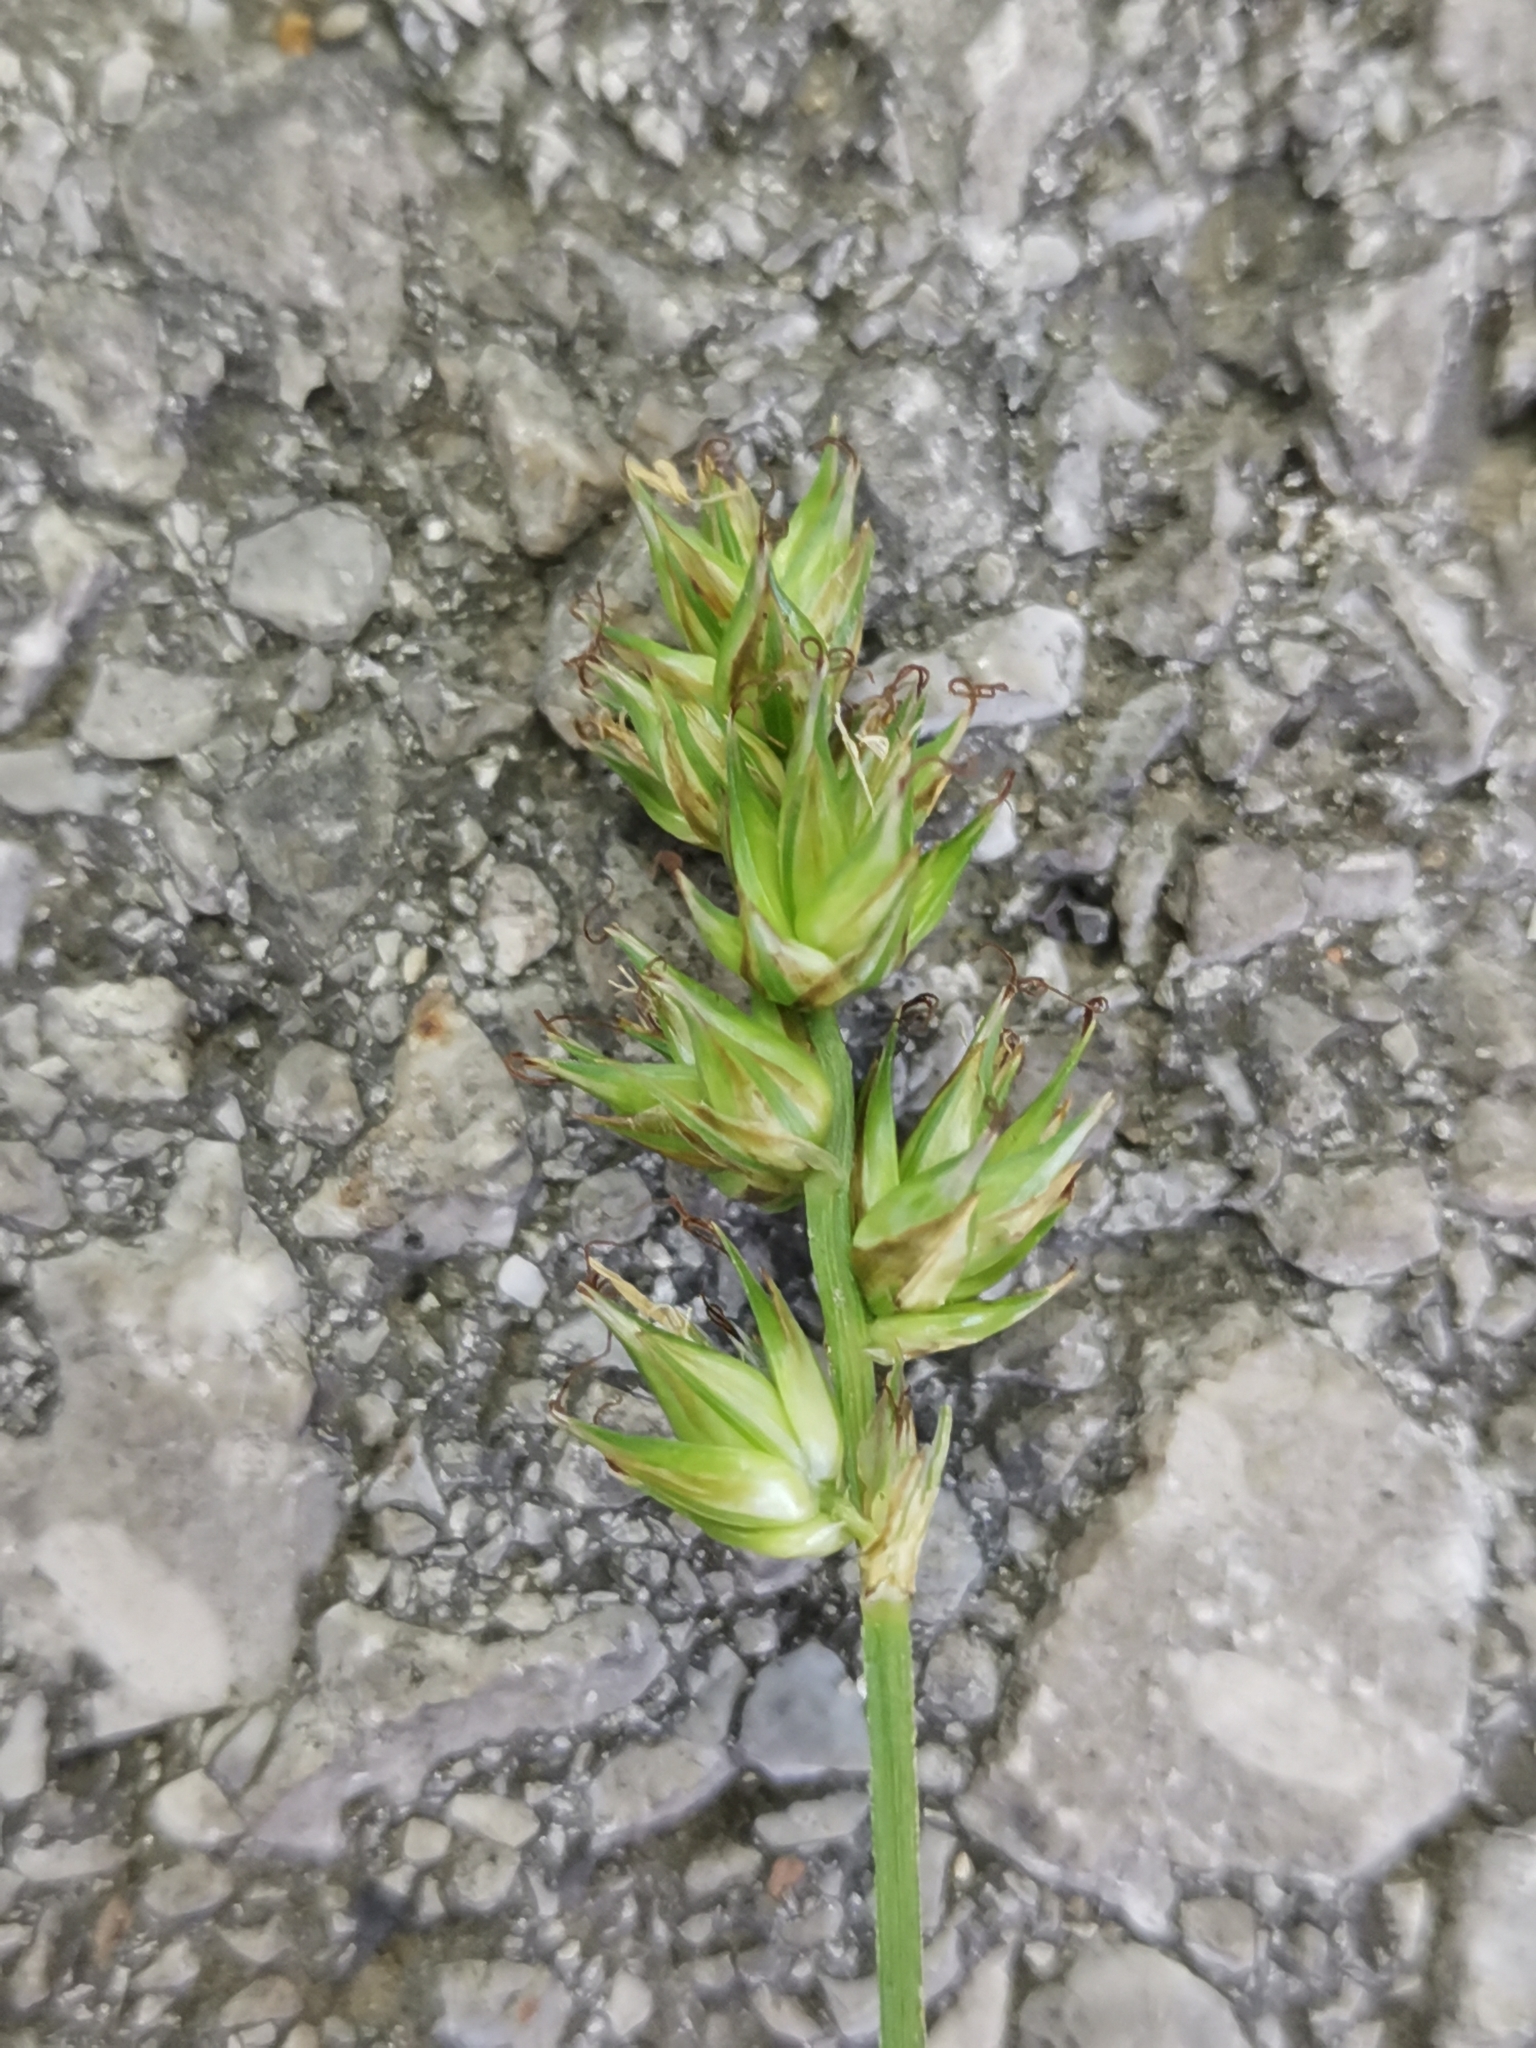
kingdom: Plantae
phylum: Tracheophyta
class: Liliopsida
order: Poales
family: Cyperaceae
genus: Carex
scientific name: Carex spicata
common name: Spiked sedge
